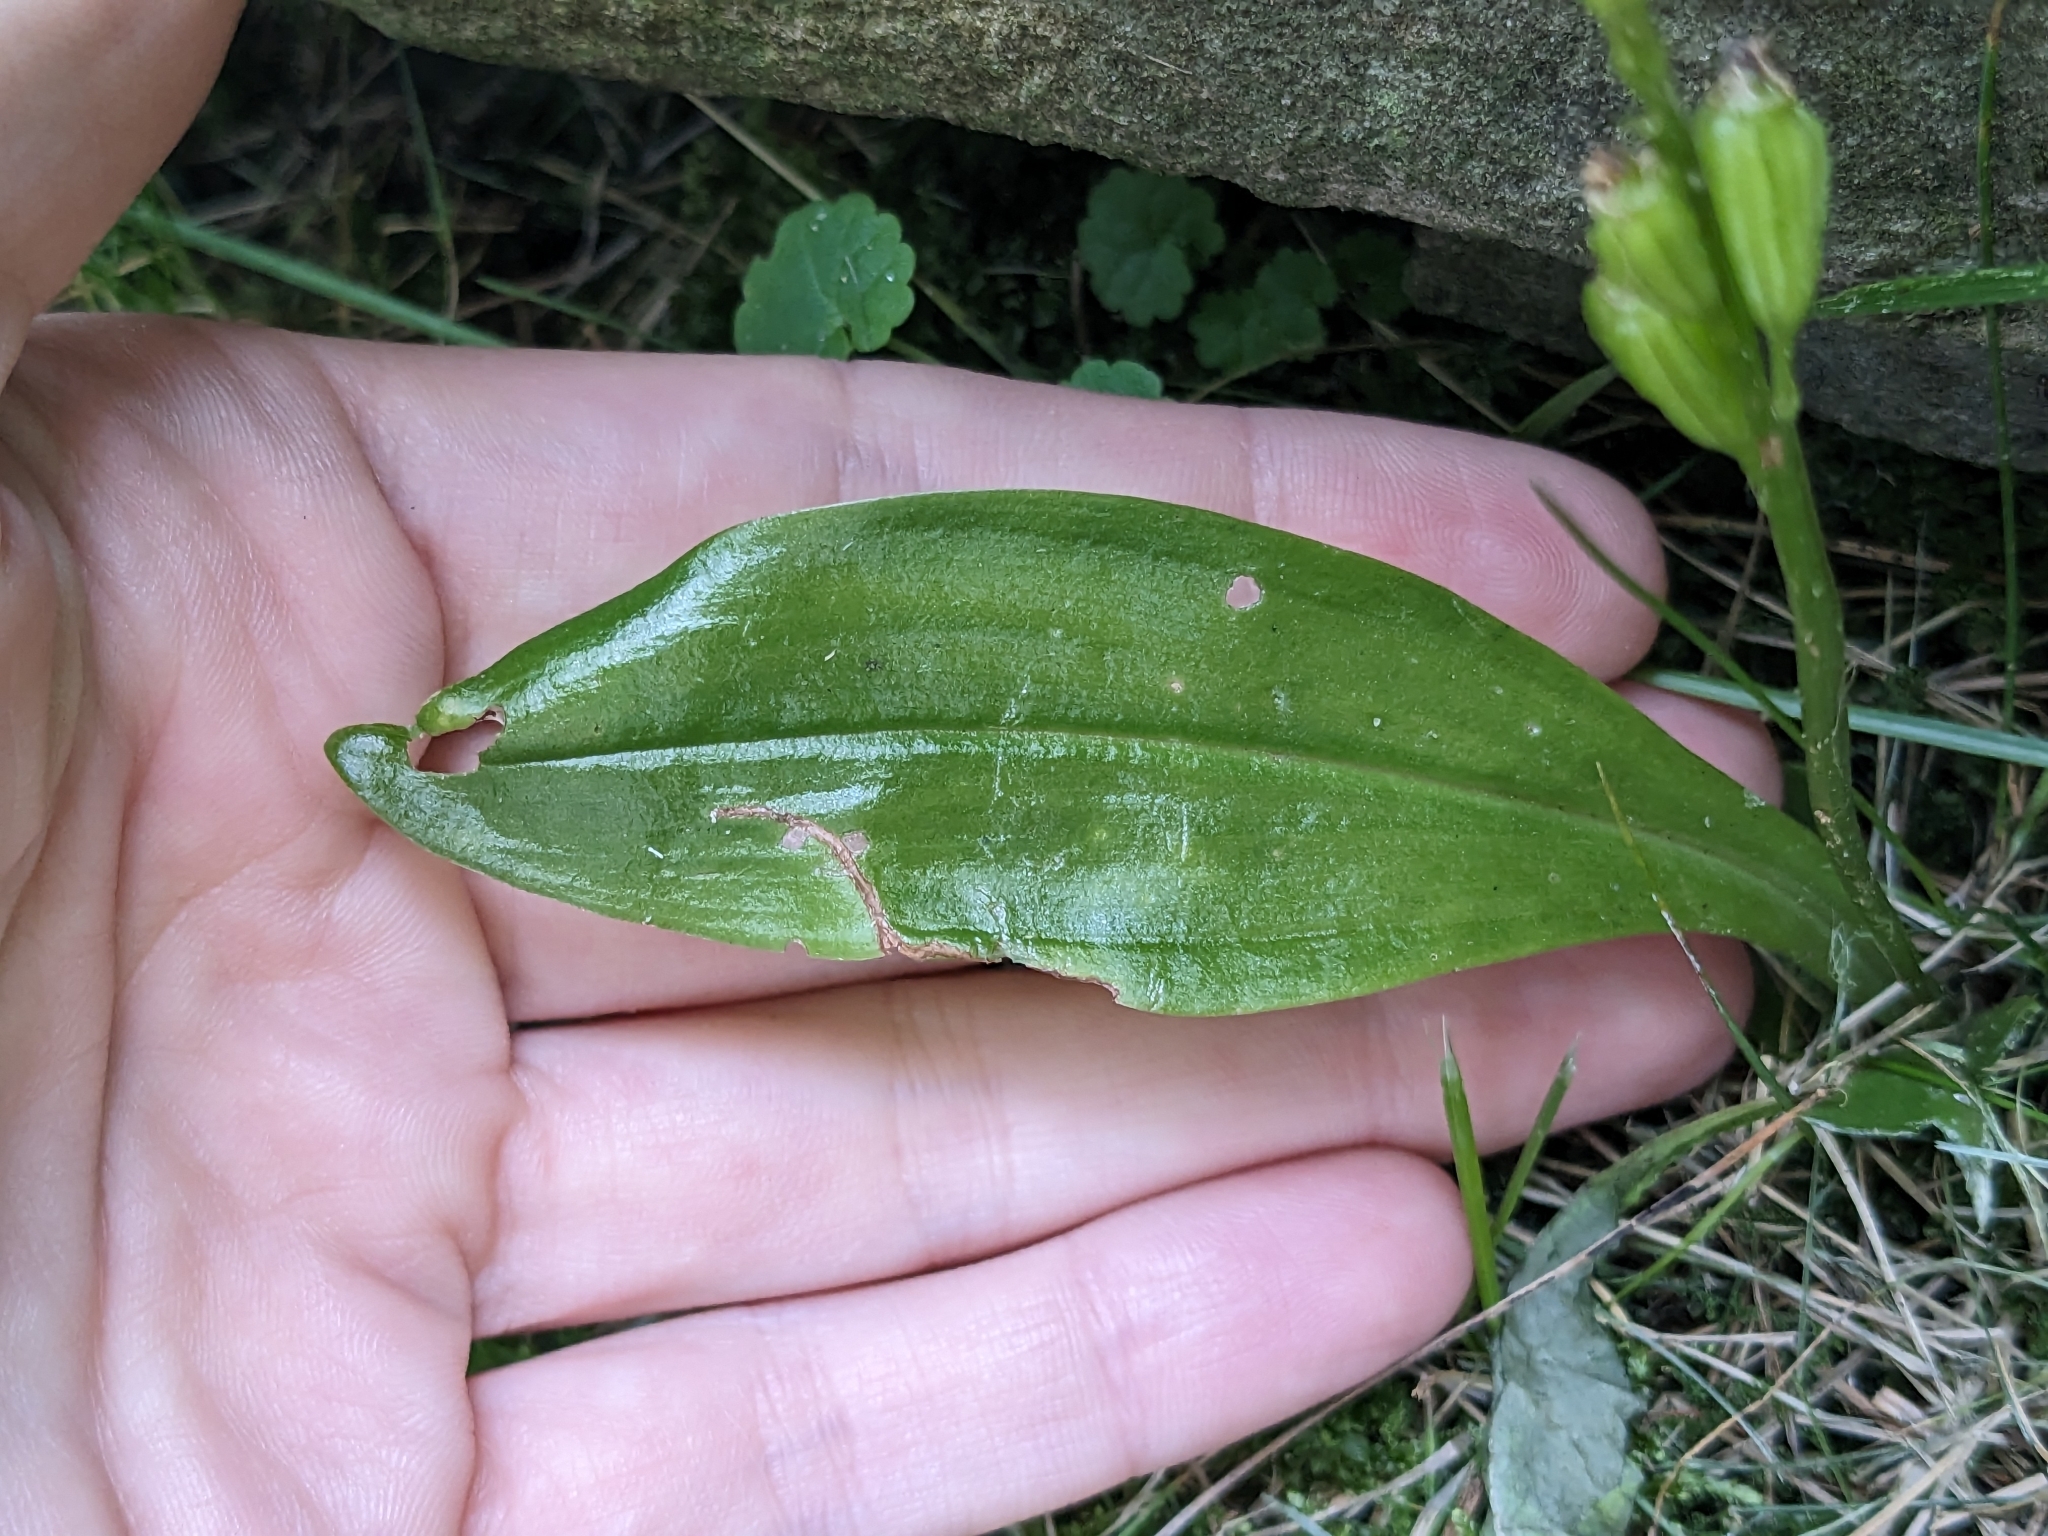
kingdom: Animalia
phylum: Arthropoda
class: Insecta
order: Coleoptera
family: Curculionidae
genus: Liparis
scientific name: Liparis loeselii
